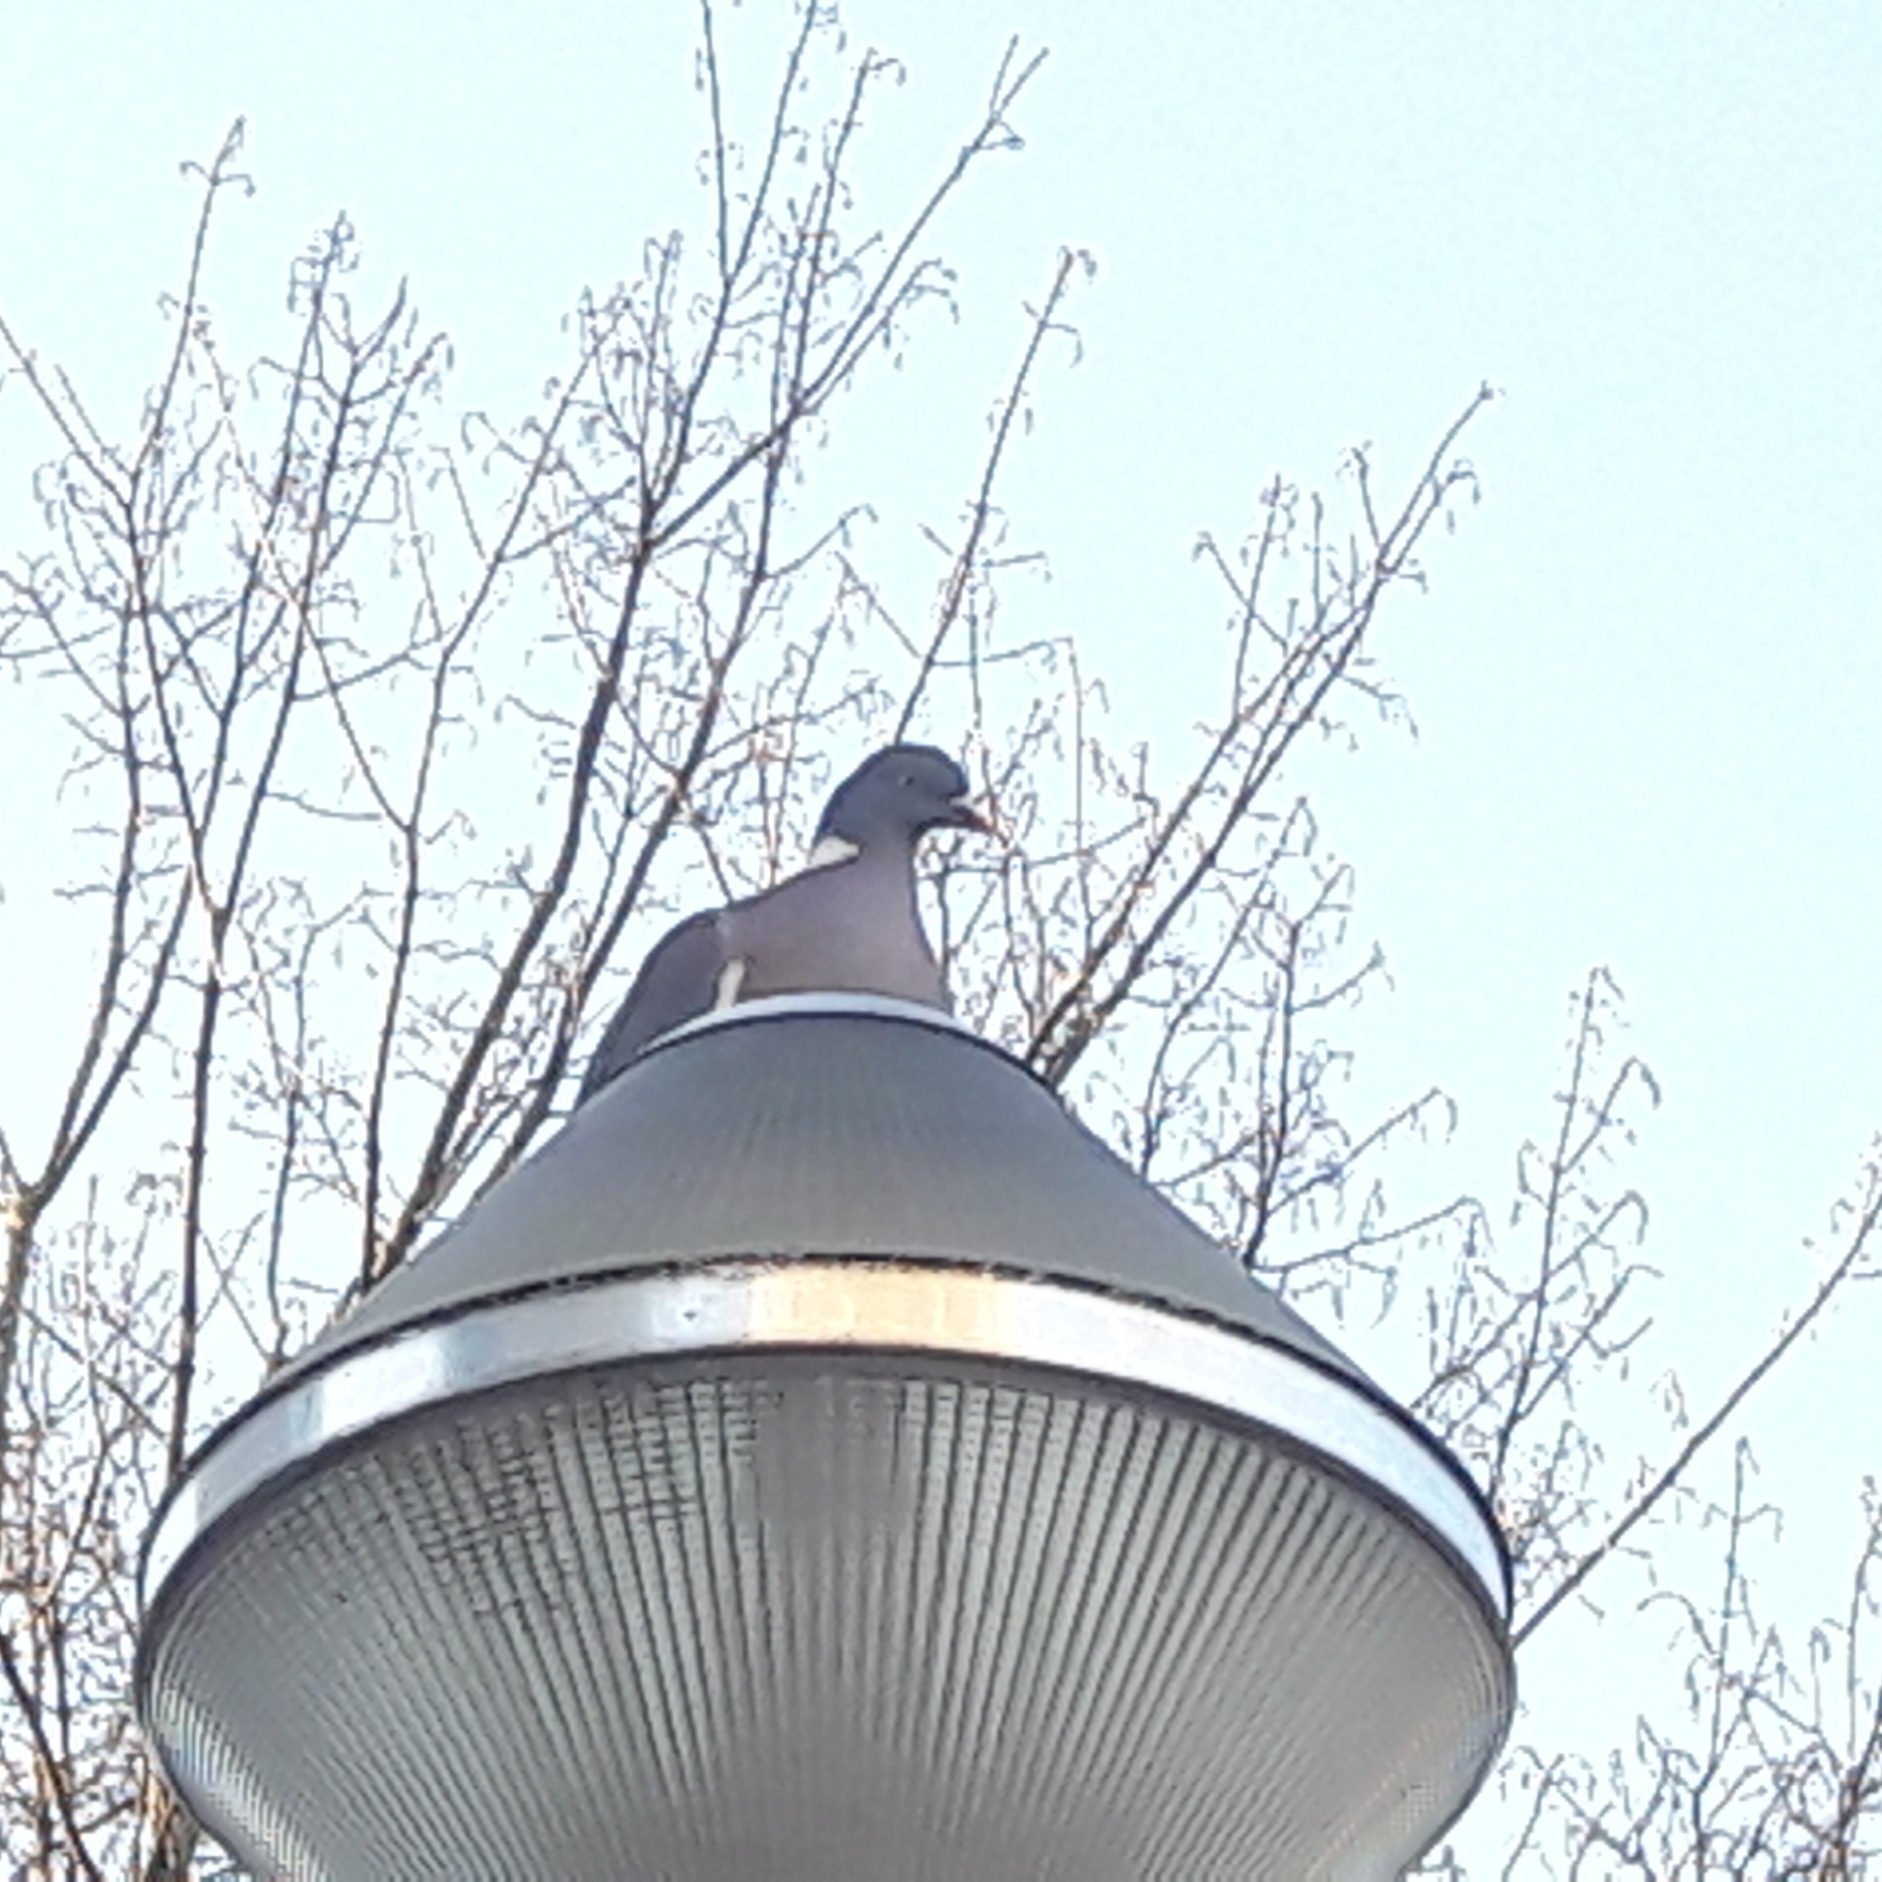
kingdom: Animalia
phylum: Chordata
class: Aves
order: Columbiformes
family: Columbidae
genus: Columba
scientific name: Columba palumbus
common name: Common wood pigeon
